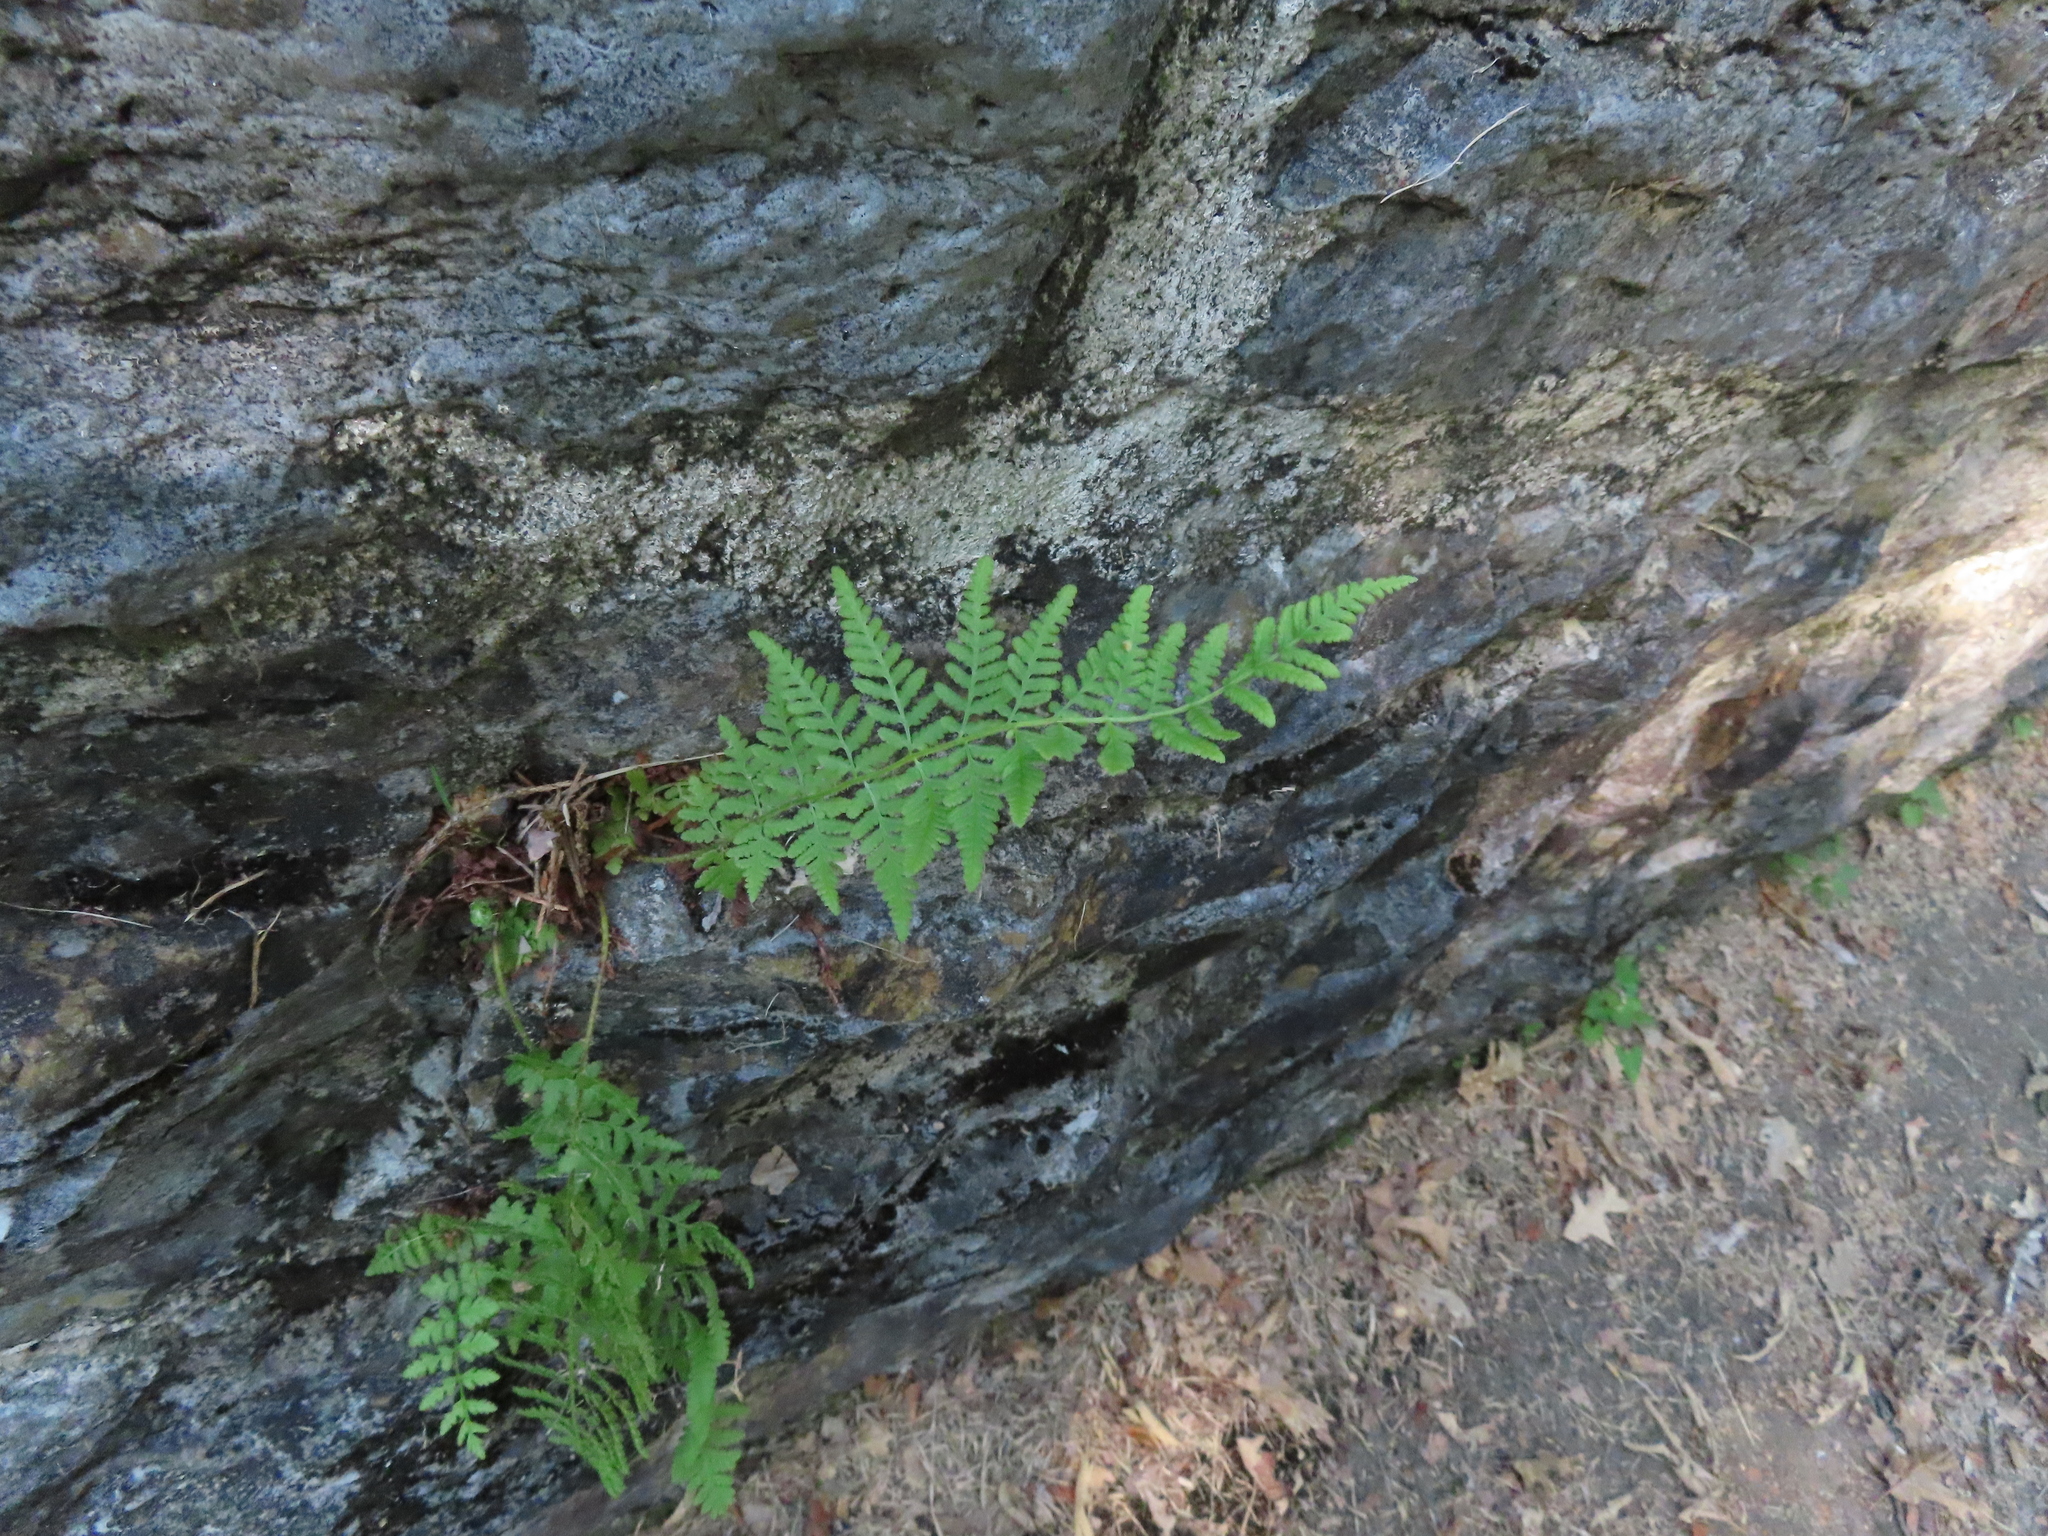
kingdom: Plantae
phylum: Tracheophyta
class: Polypodiopsida
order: Polypodiales
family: Woodsiaceae
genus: Physematium
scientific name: Physematium obtusum
